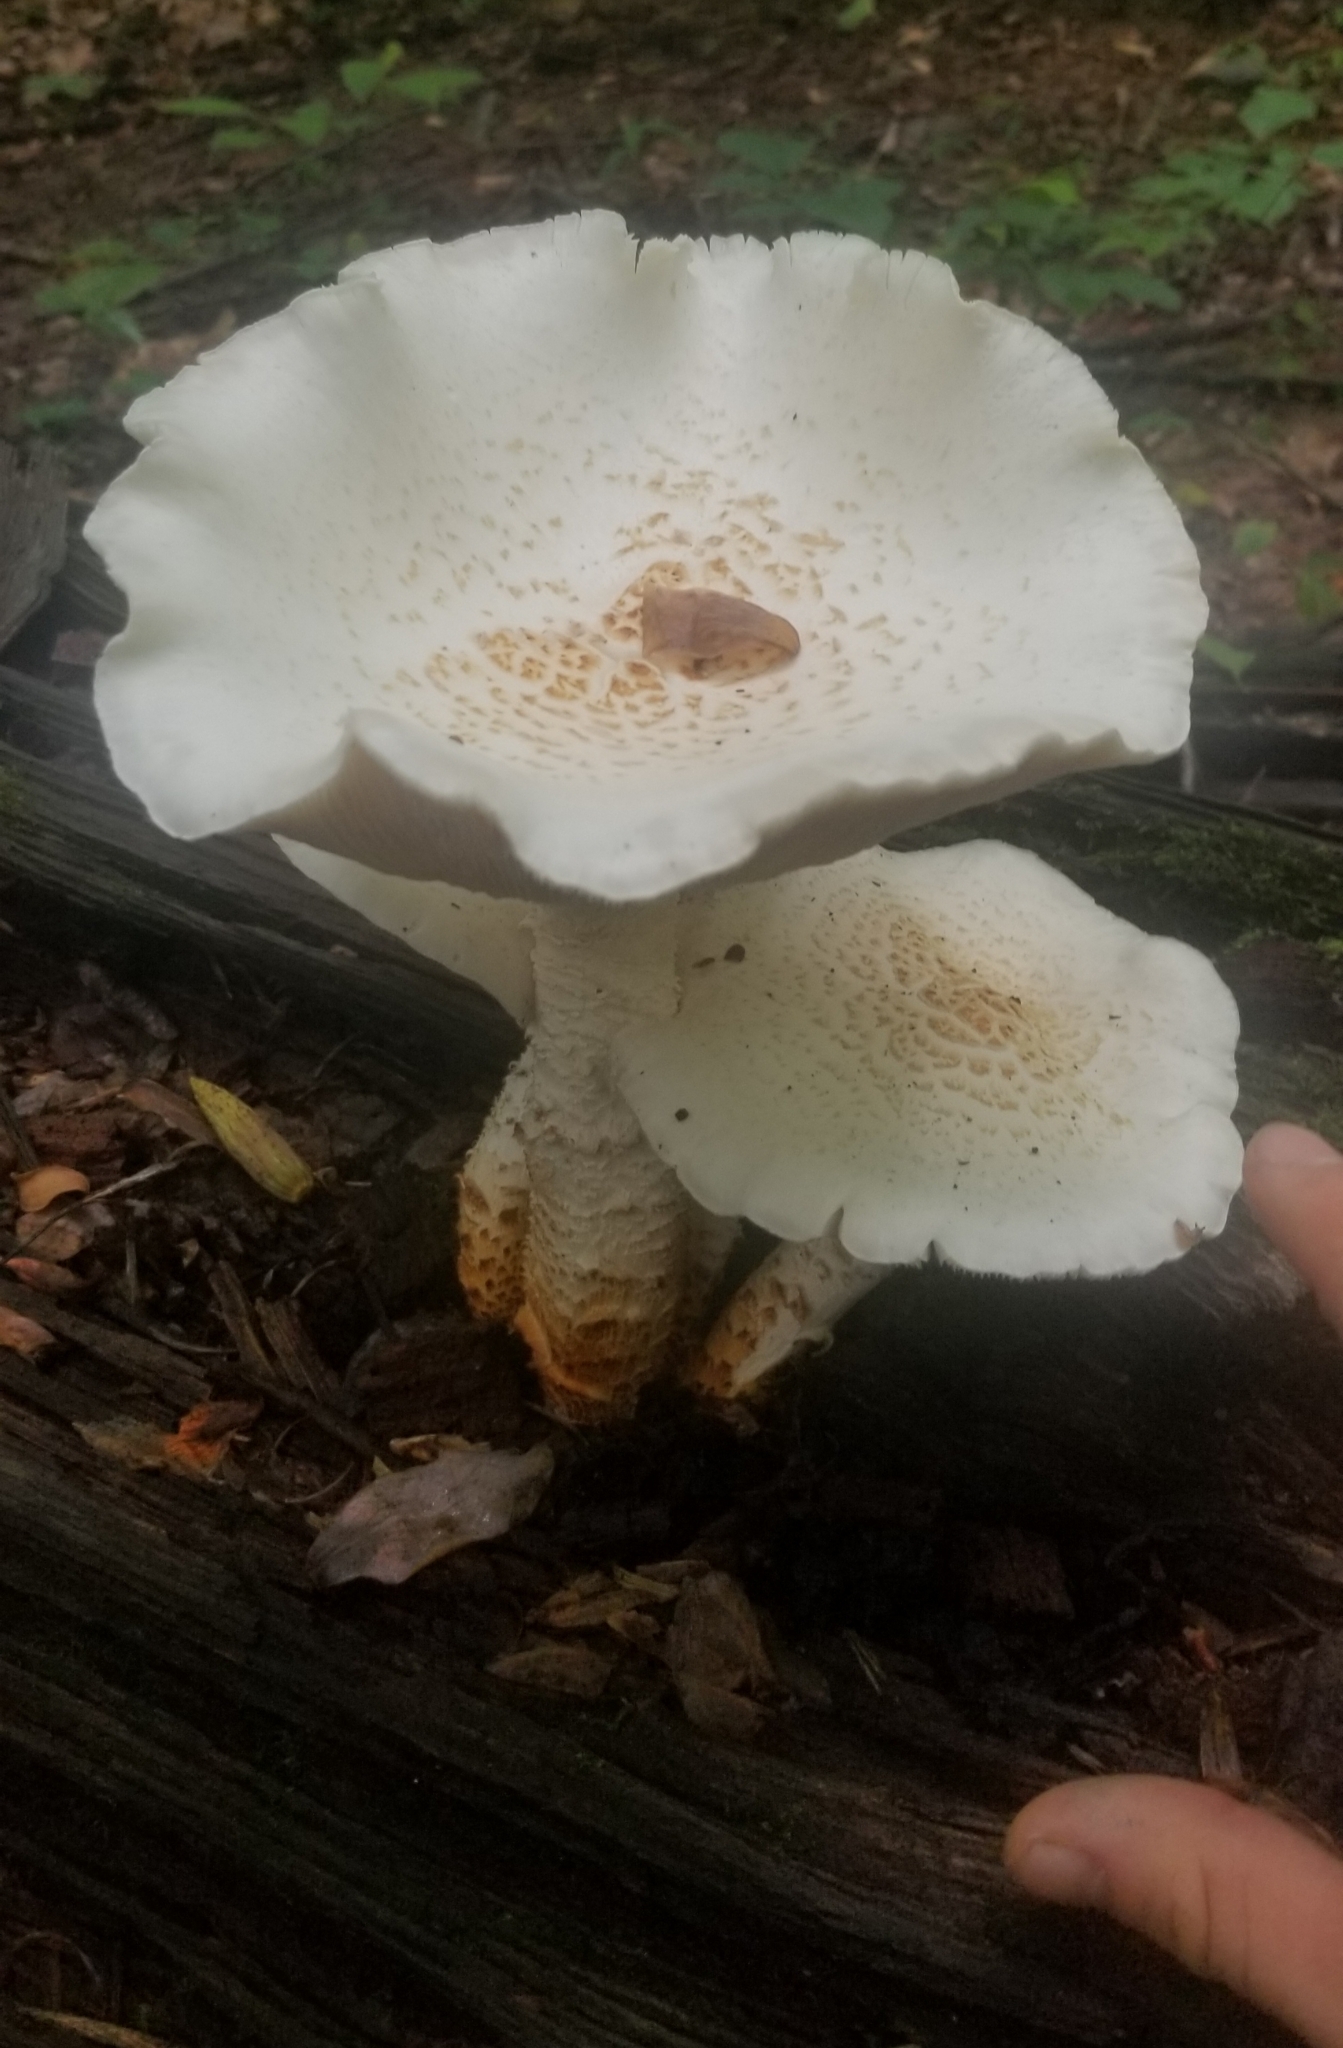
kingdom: Fungi
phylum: Basidiomycota
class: Agaricomycetes
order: Gloeophyllales
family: Gloeophyllaceae
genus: Neolentinus
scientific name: Neolentinus lepideus
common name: Scaly sawgill
